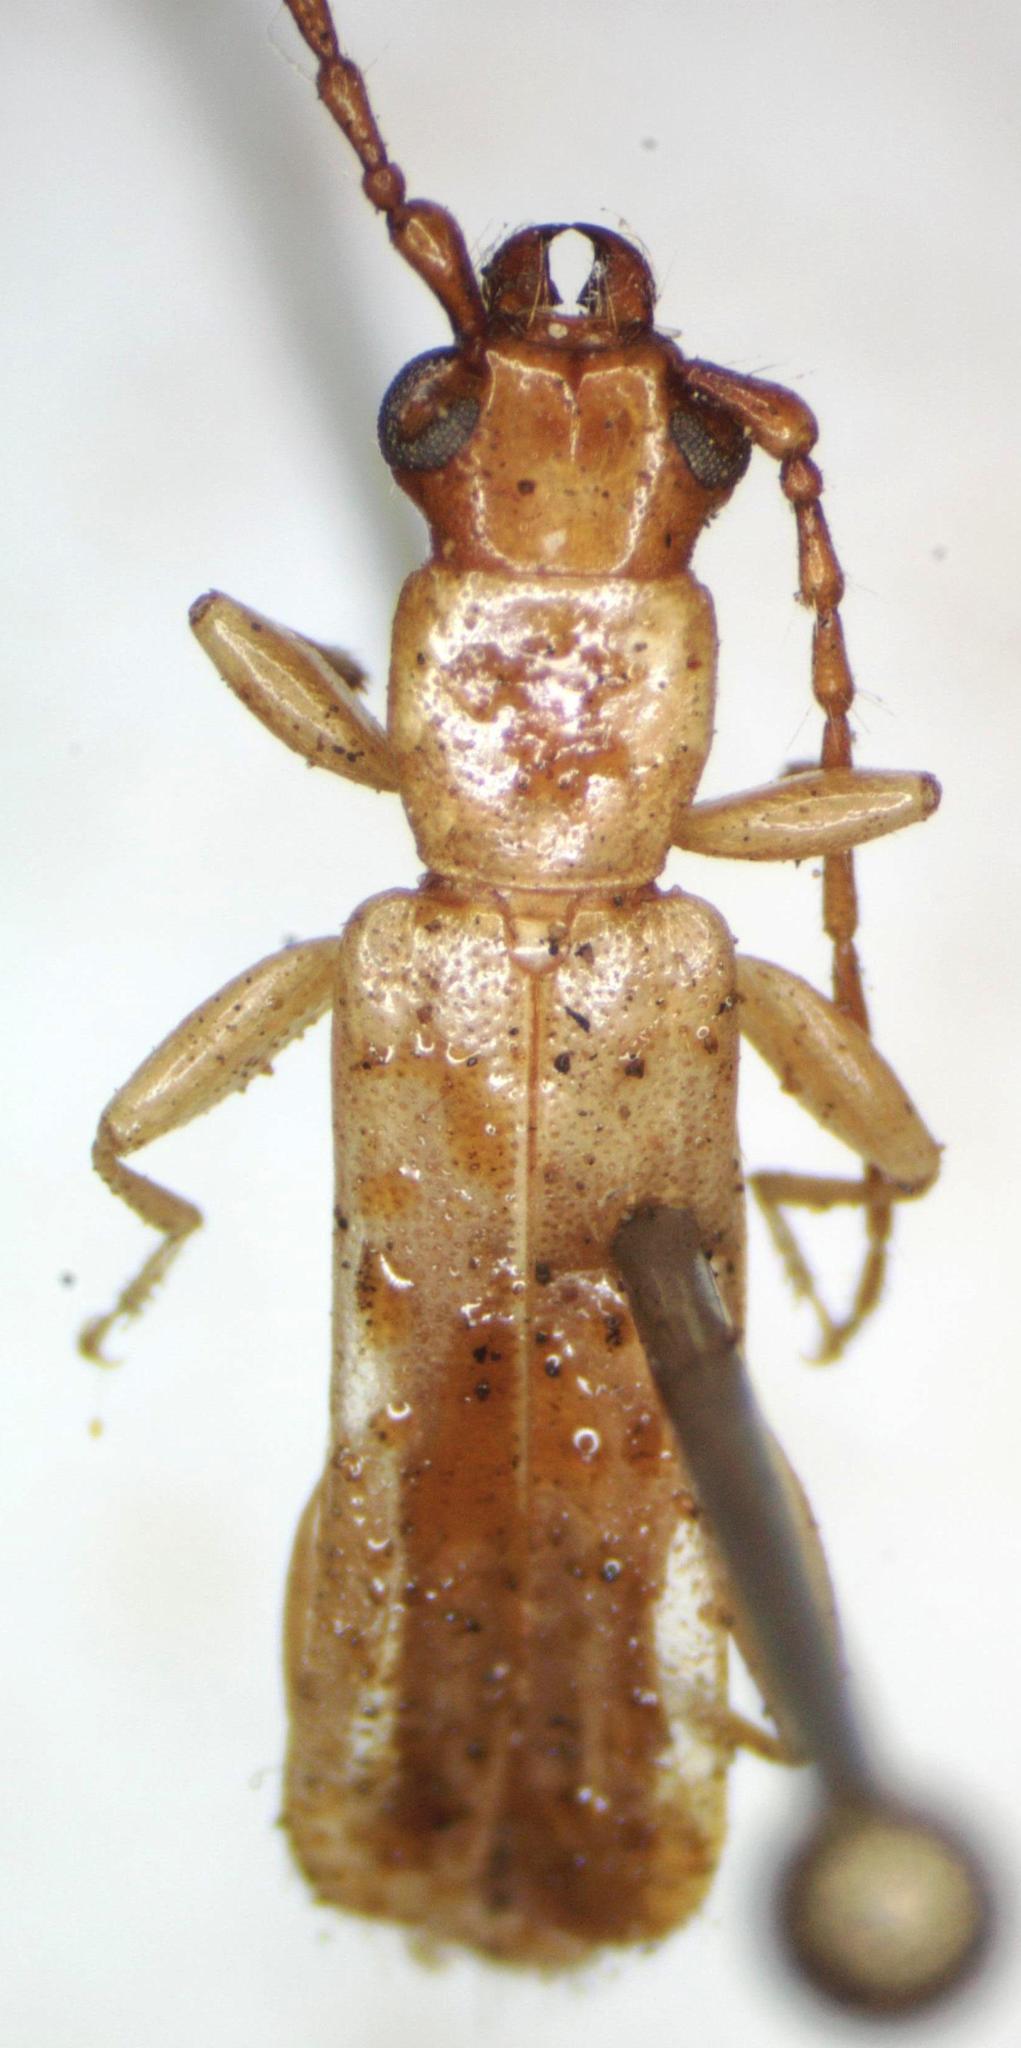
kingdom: Animalia
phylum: Arthropoda
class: Insecta
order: Coleoptera
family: Cerambycidae
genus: Smodicum
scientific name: Smodicum parandroides
